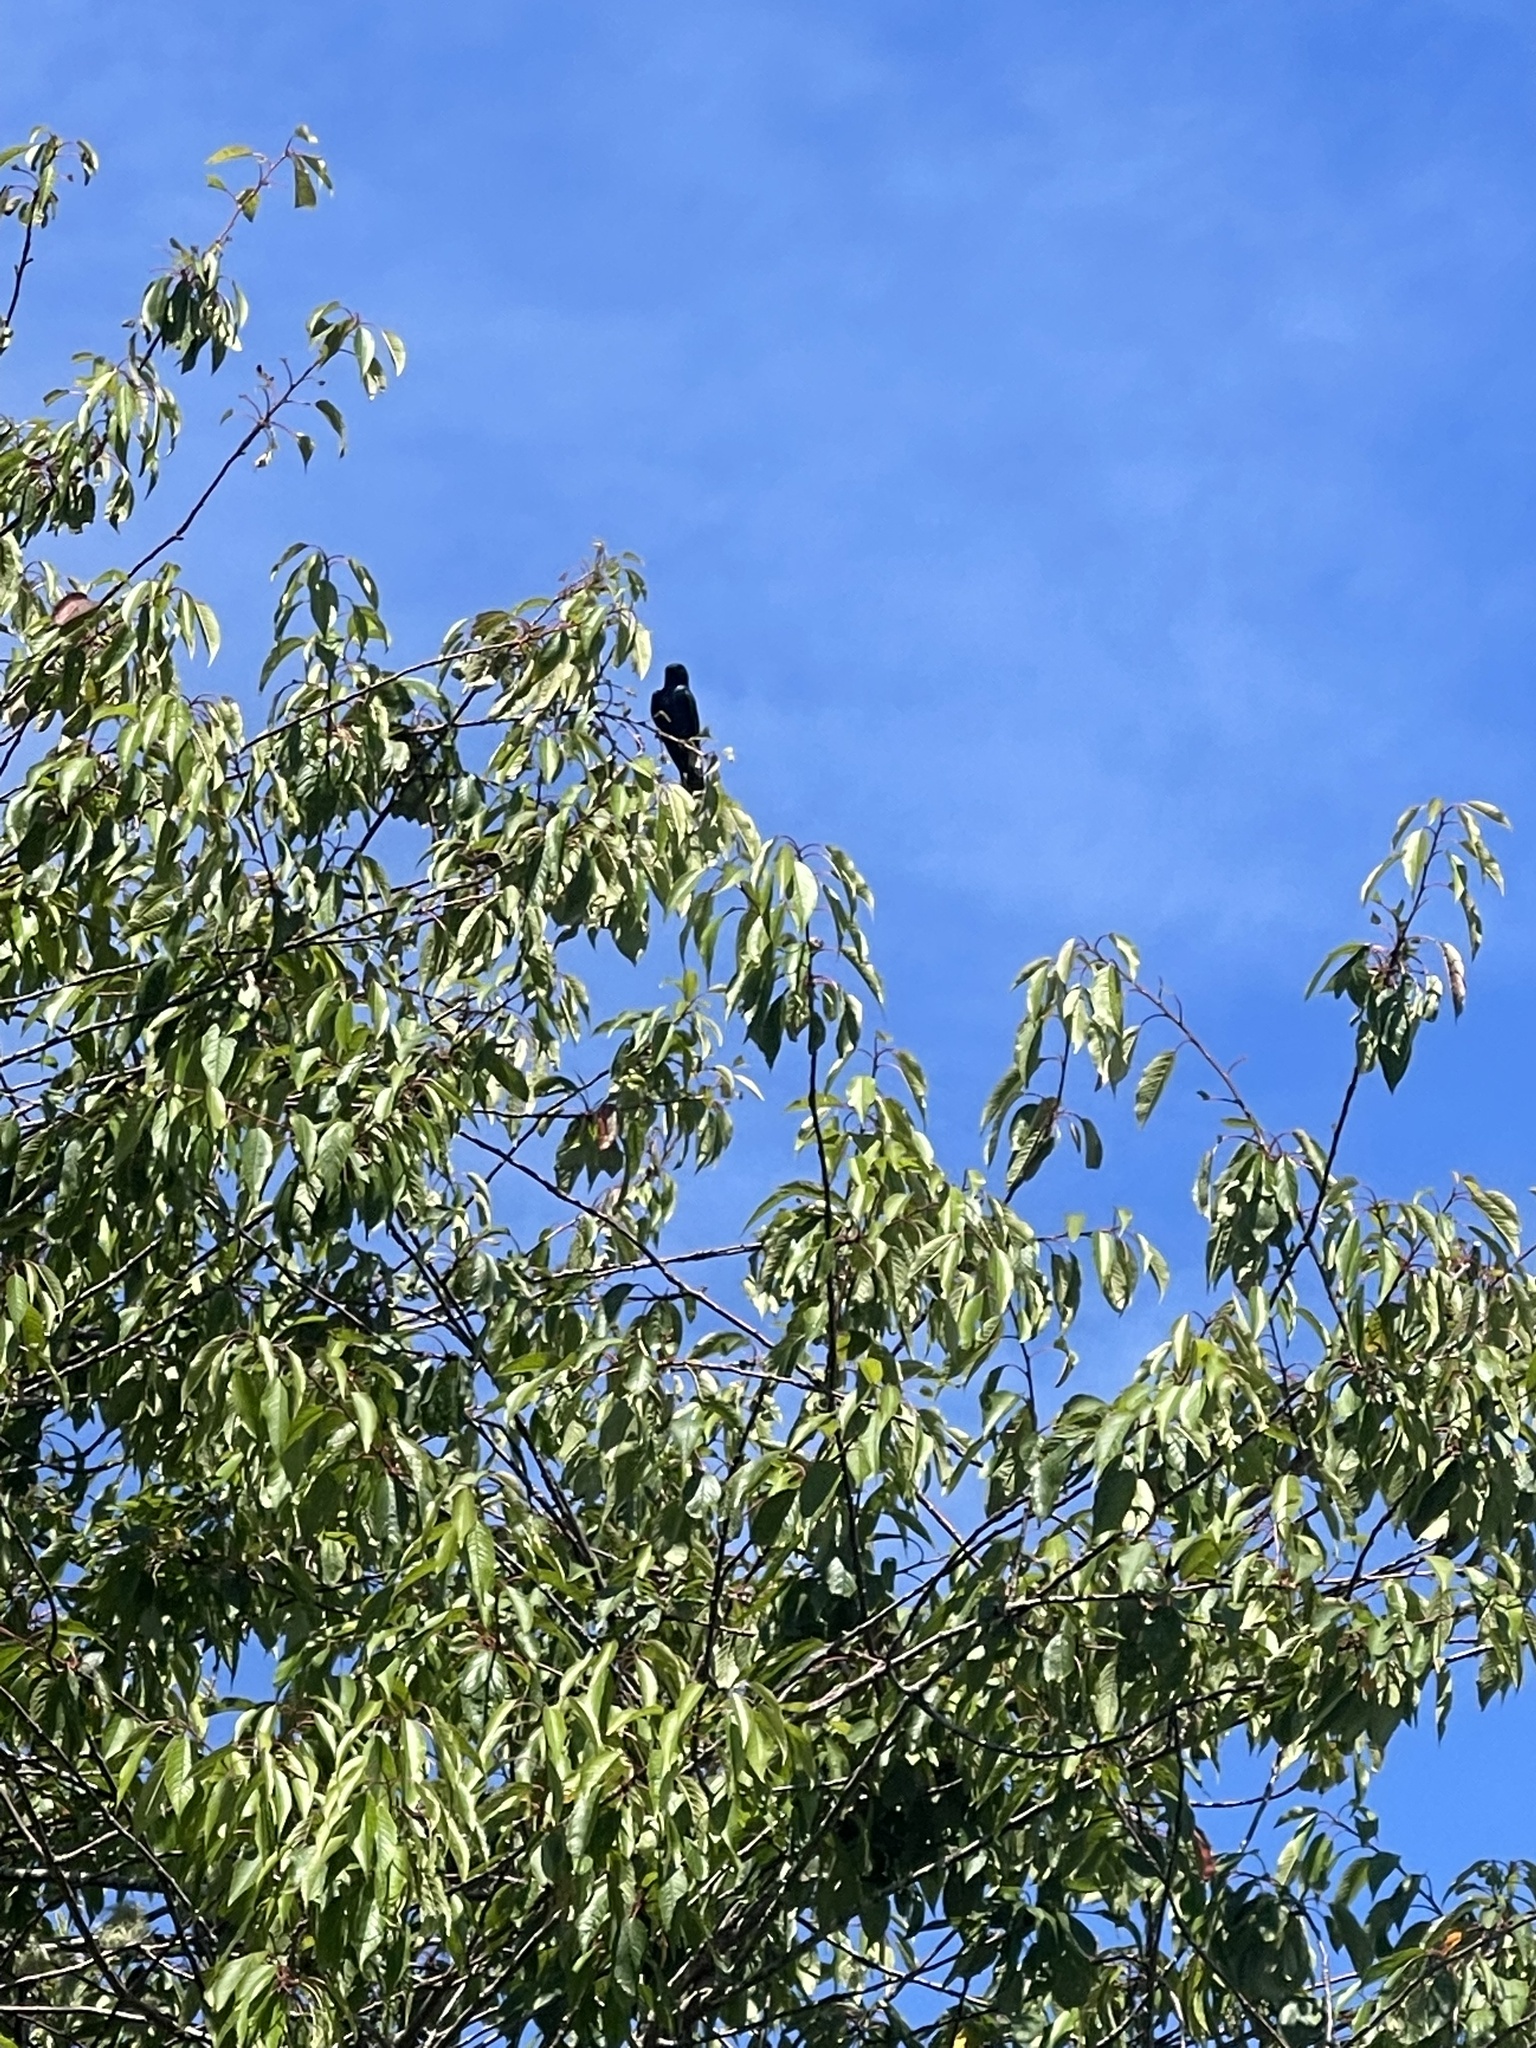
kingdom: Animalia
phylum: Chordata
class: Aves
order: Passeriformes
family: Hirundinidae
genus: Progne
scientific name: Progne subis
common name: Purple martin
